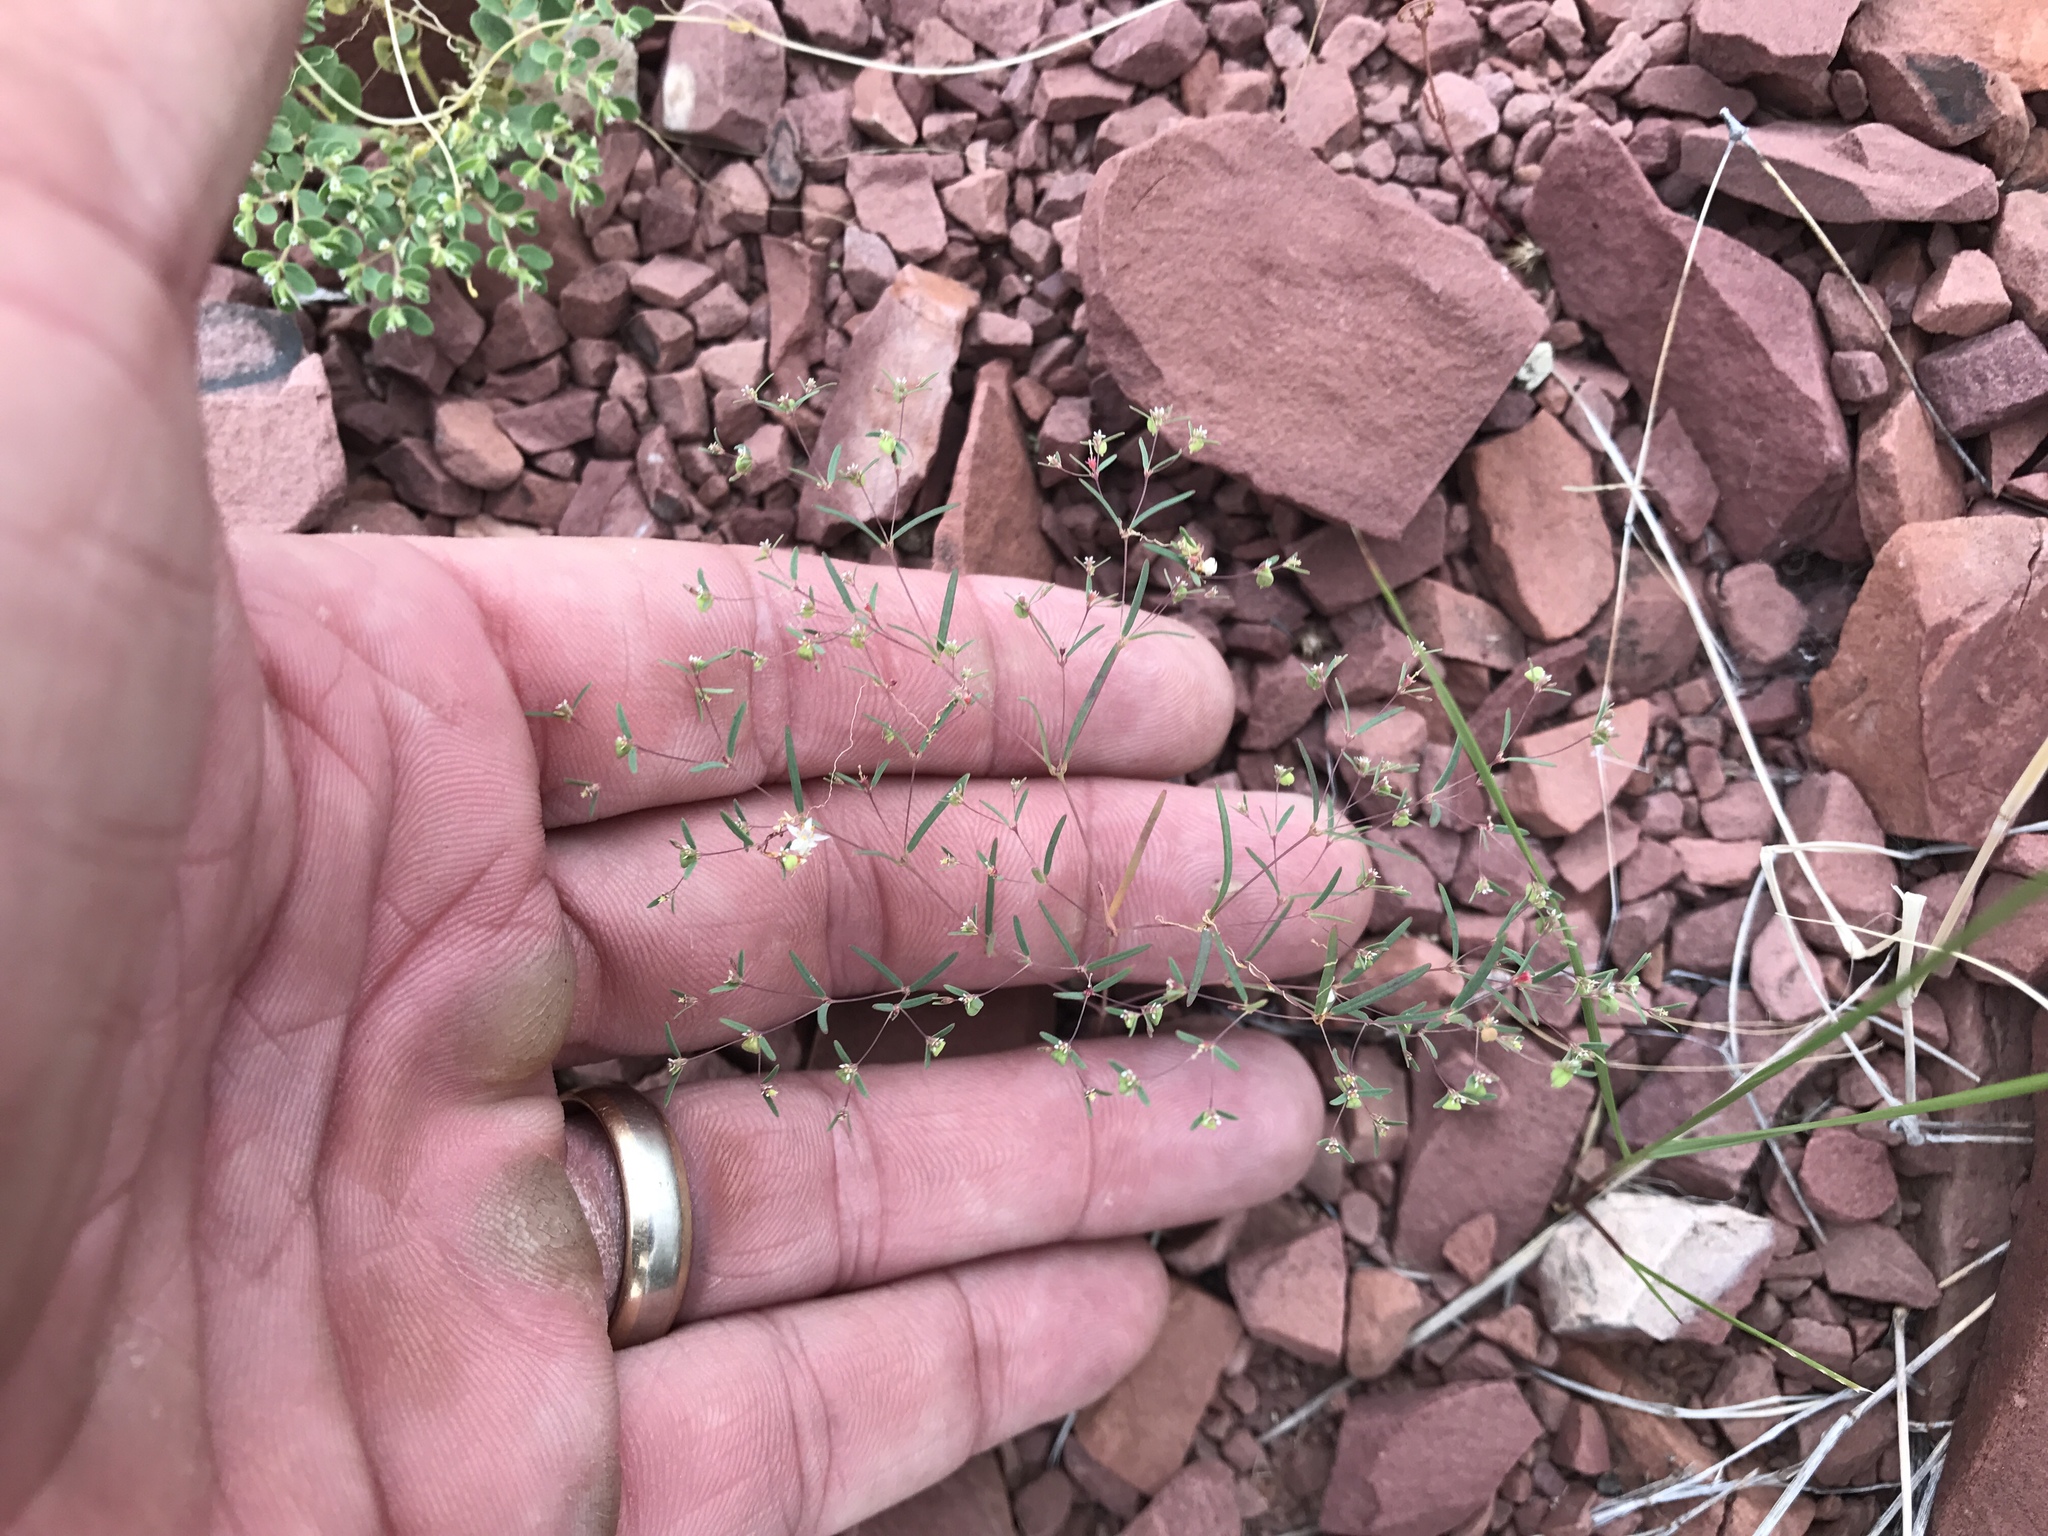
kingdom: Plantae
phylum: Tracheophyta
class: Magnoliopsida
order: Malpighiales
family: Euphorbiaceae
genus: Euphorbia
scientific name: Euphorbia gracillima
